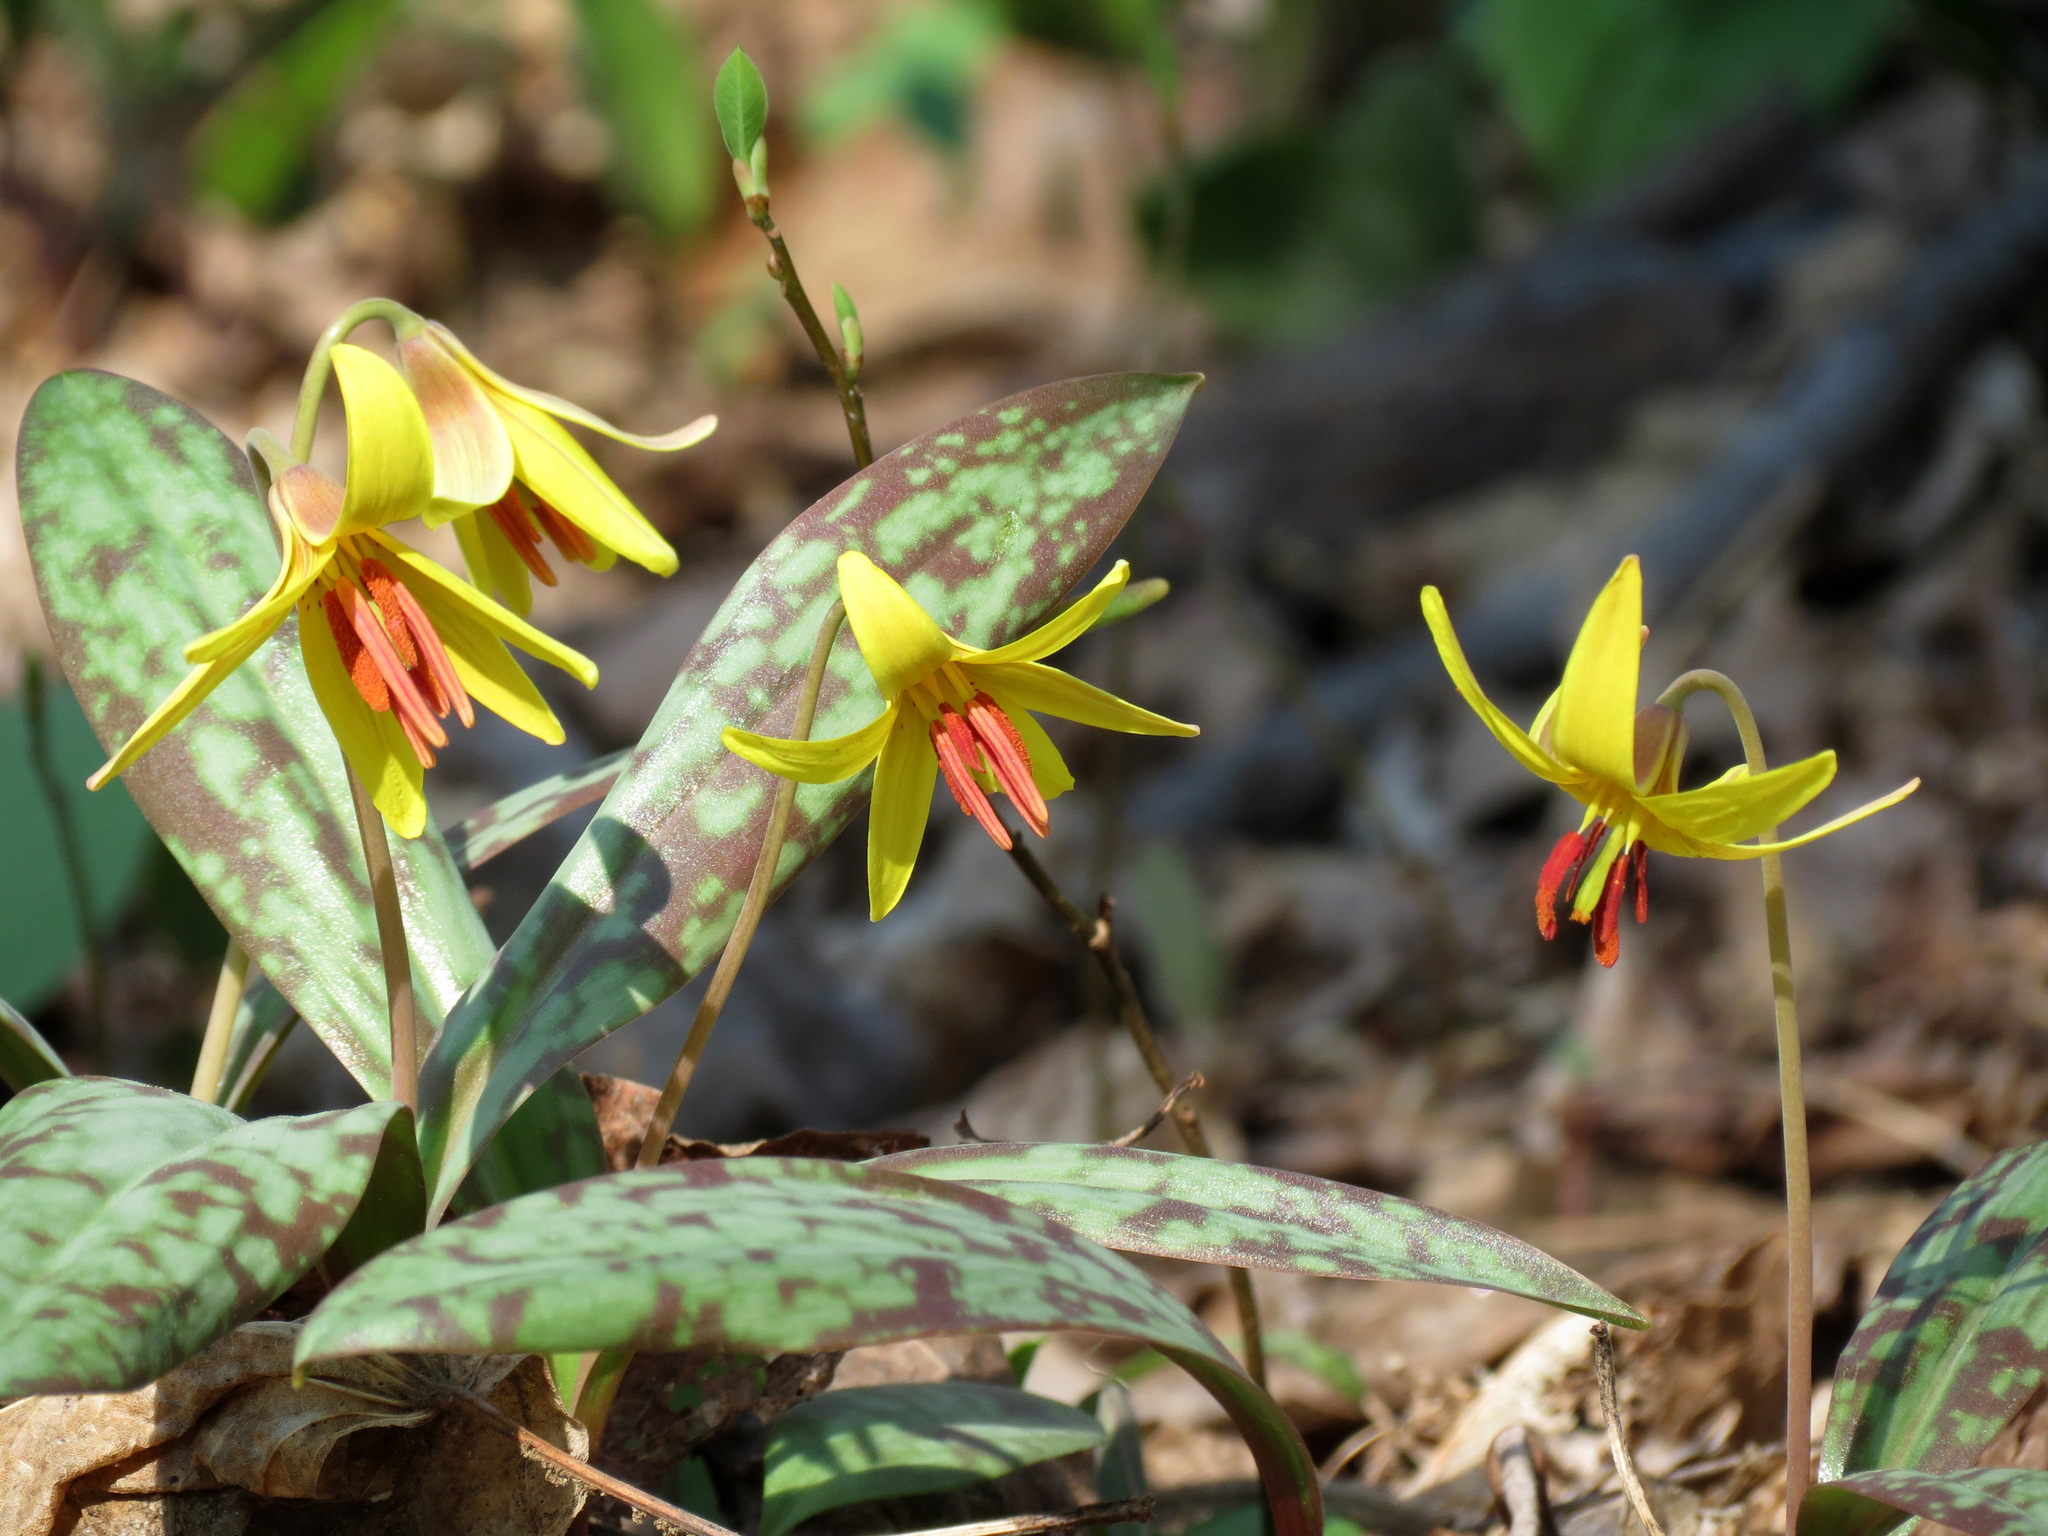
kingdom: Plantae
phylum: Tracheophyta
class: Liliopsida
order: Liliales
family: Liliaceae
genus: Erythronium
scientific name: Erythronium americanum
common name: Yellow adder's-tongue
